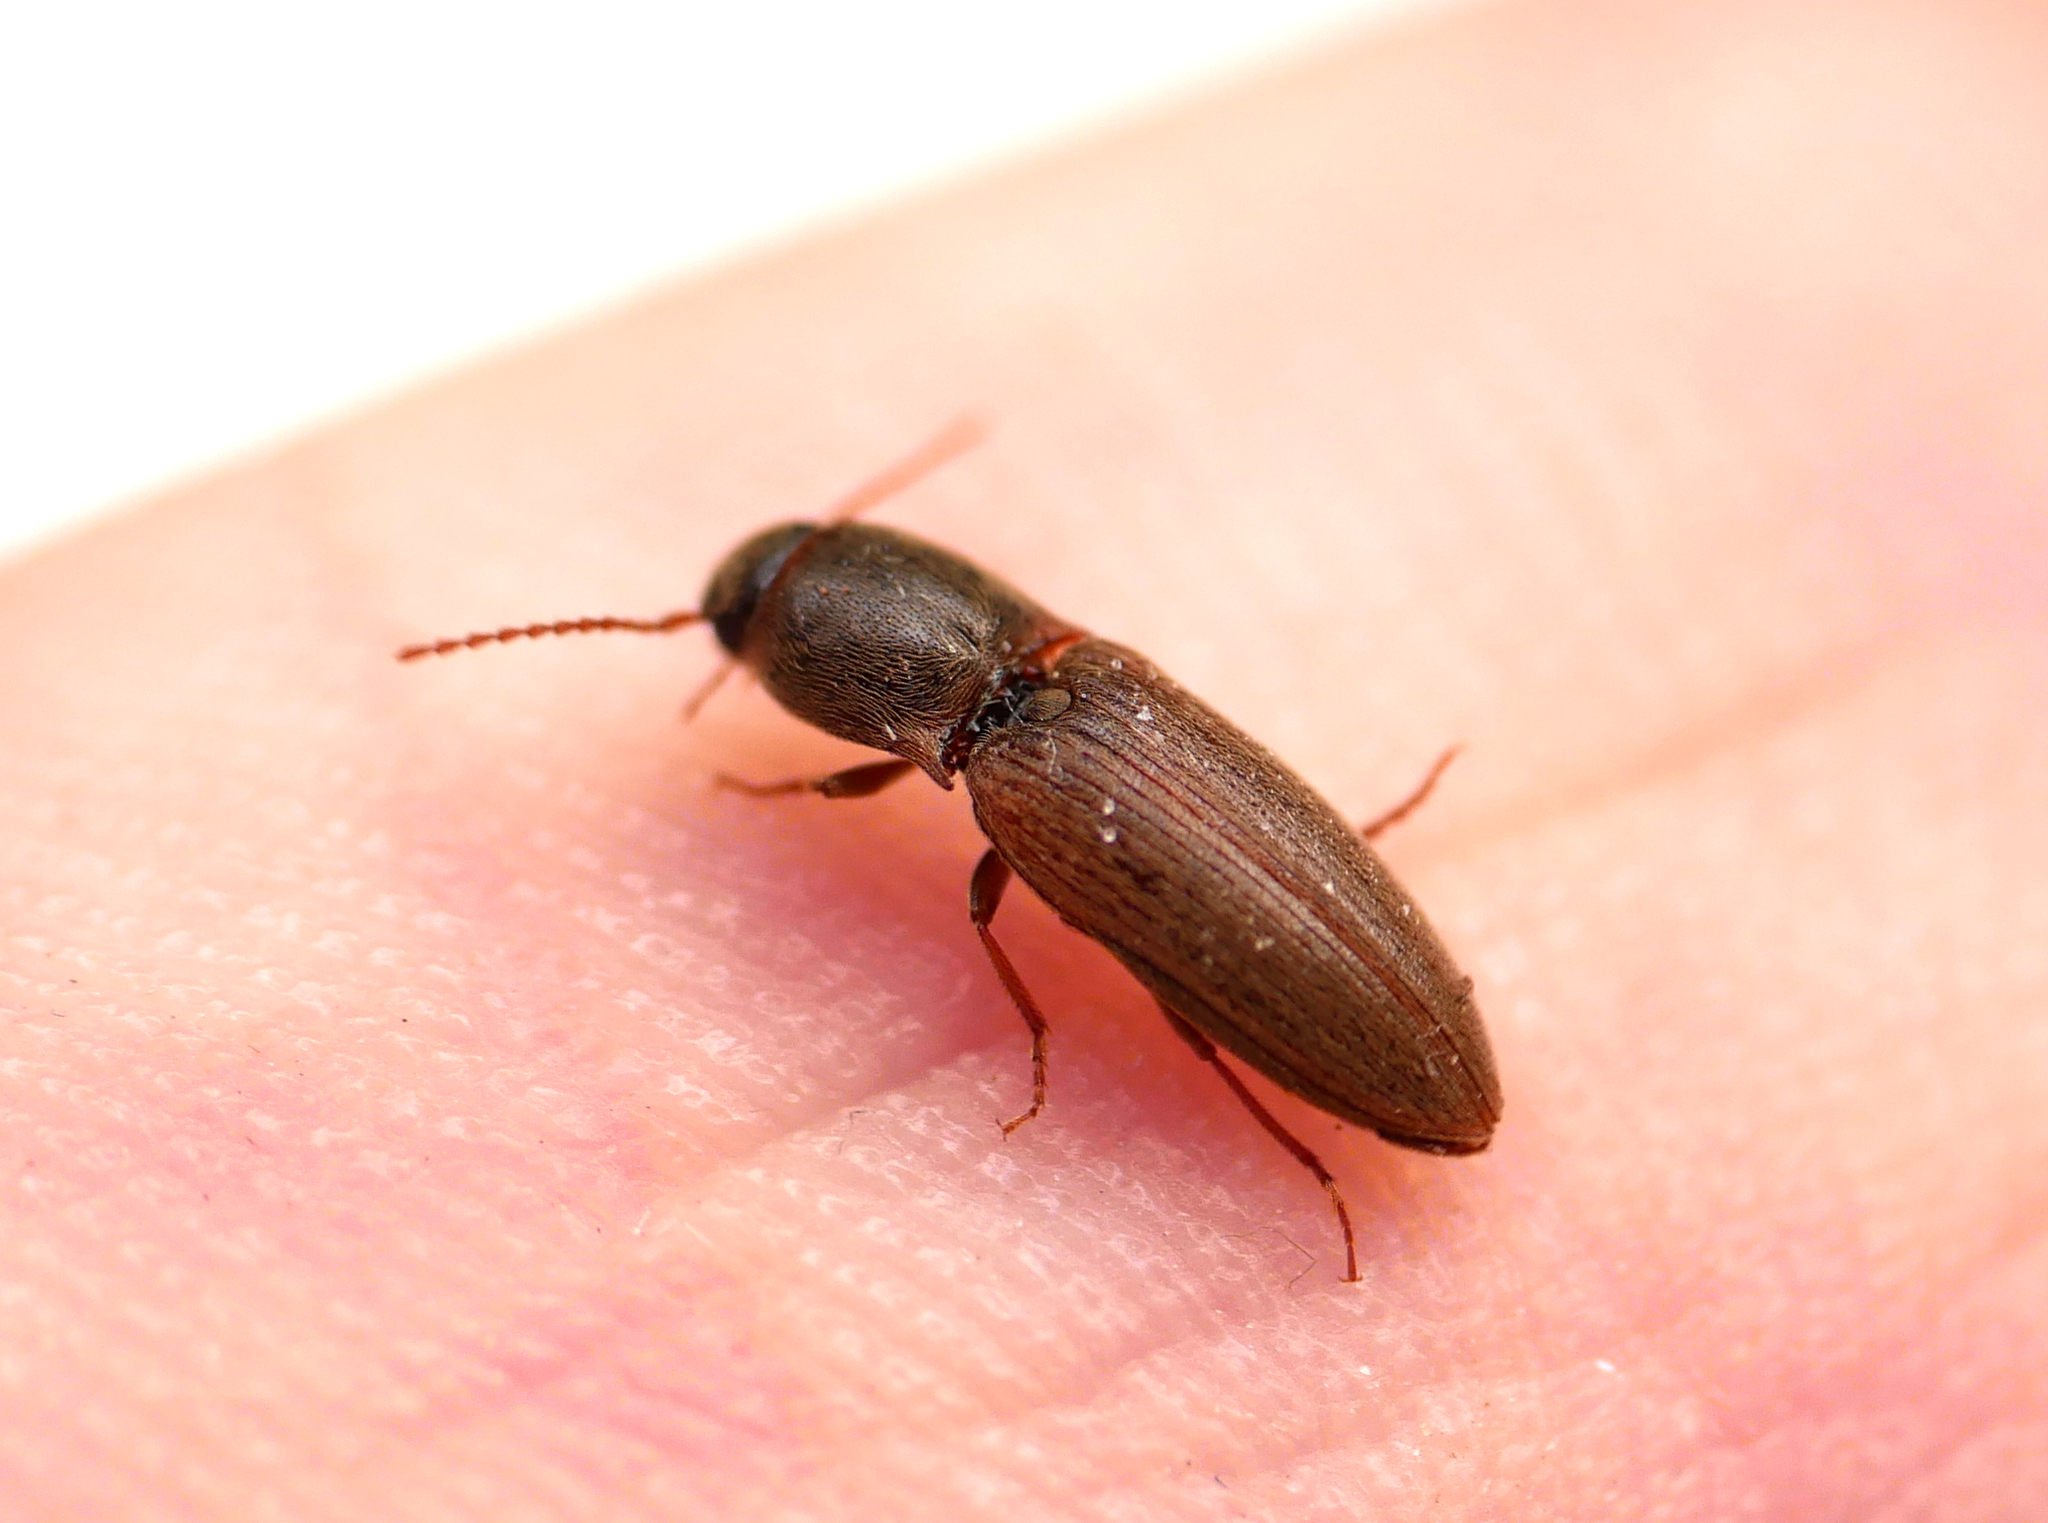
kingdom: Animalia
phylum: Arthropoda
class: Insecta
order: Coleoptera
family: Elateridae
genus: Agriotes
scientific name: Agriotes sputator
